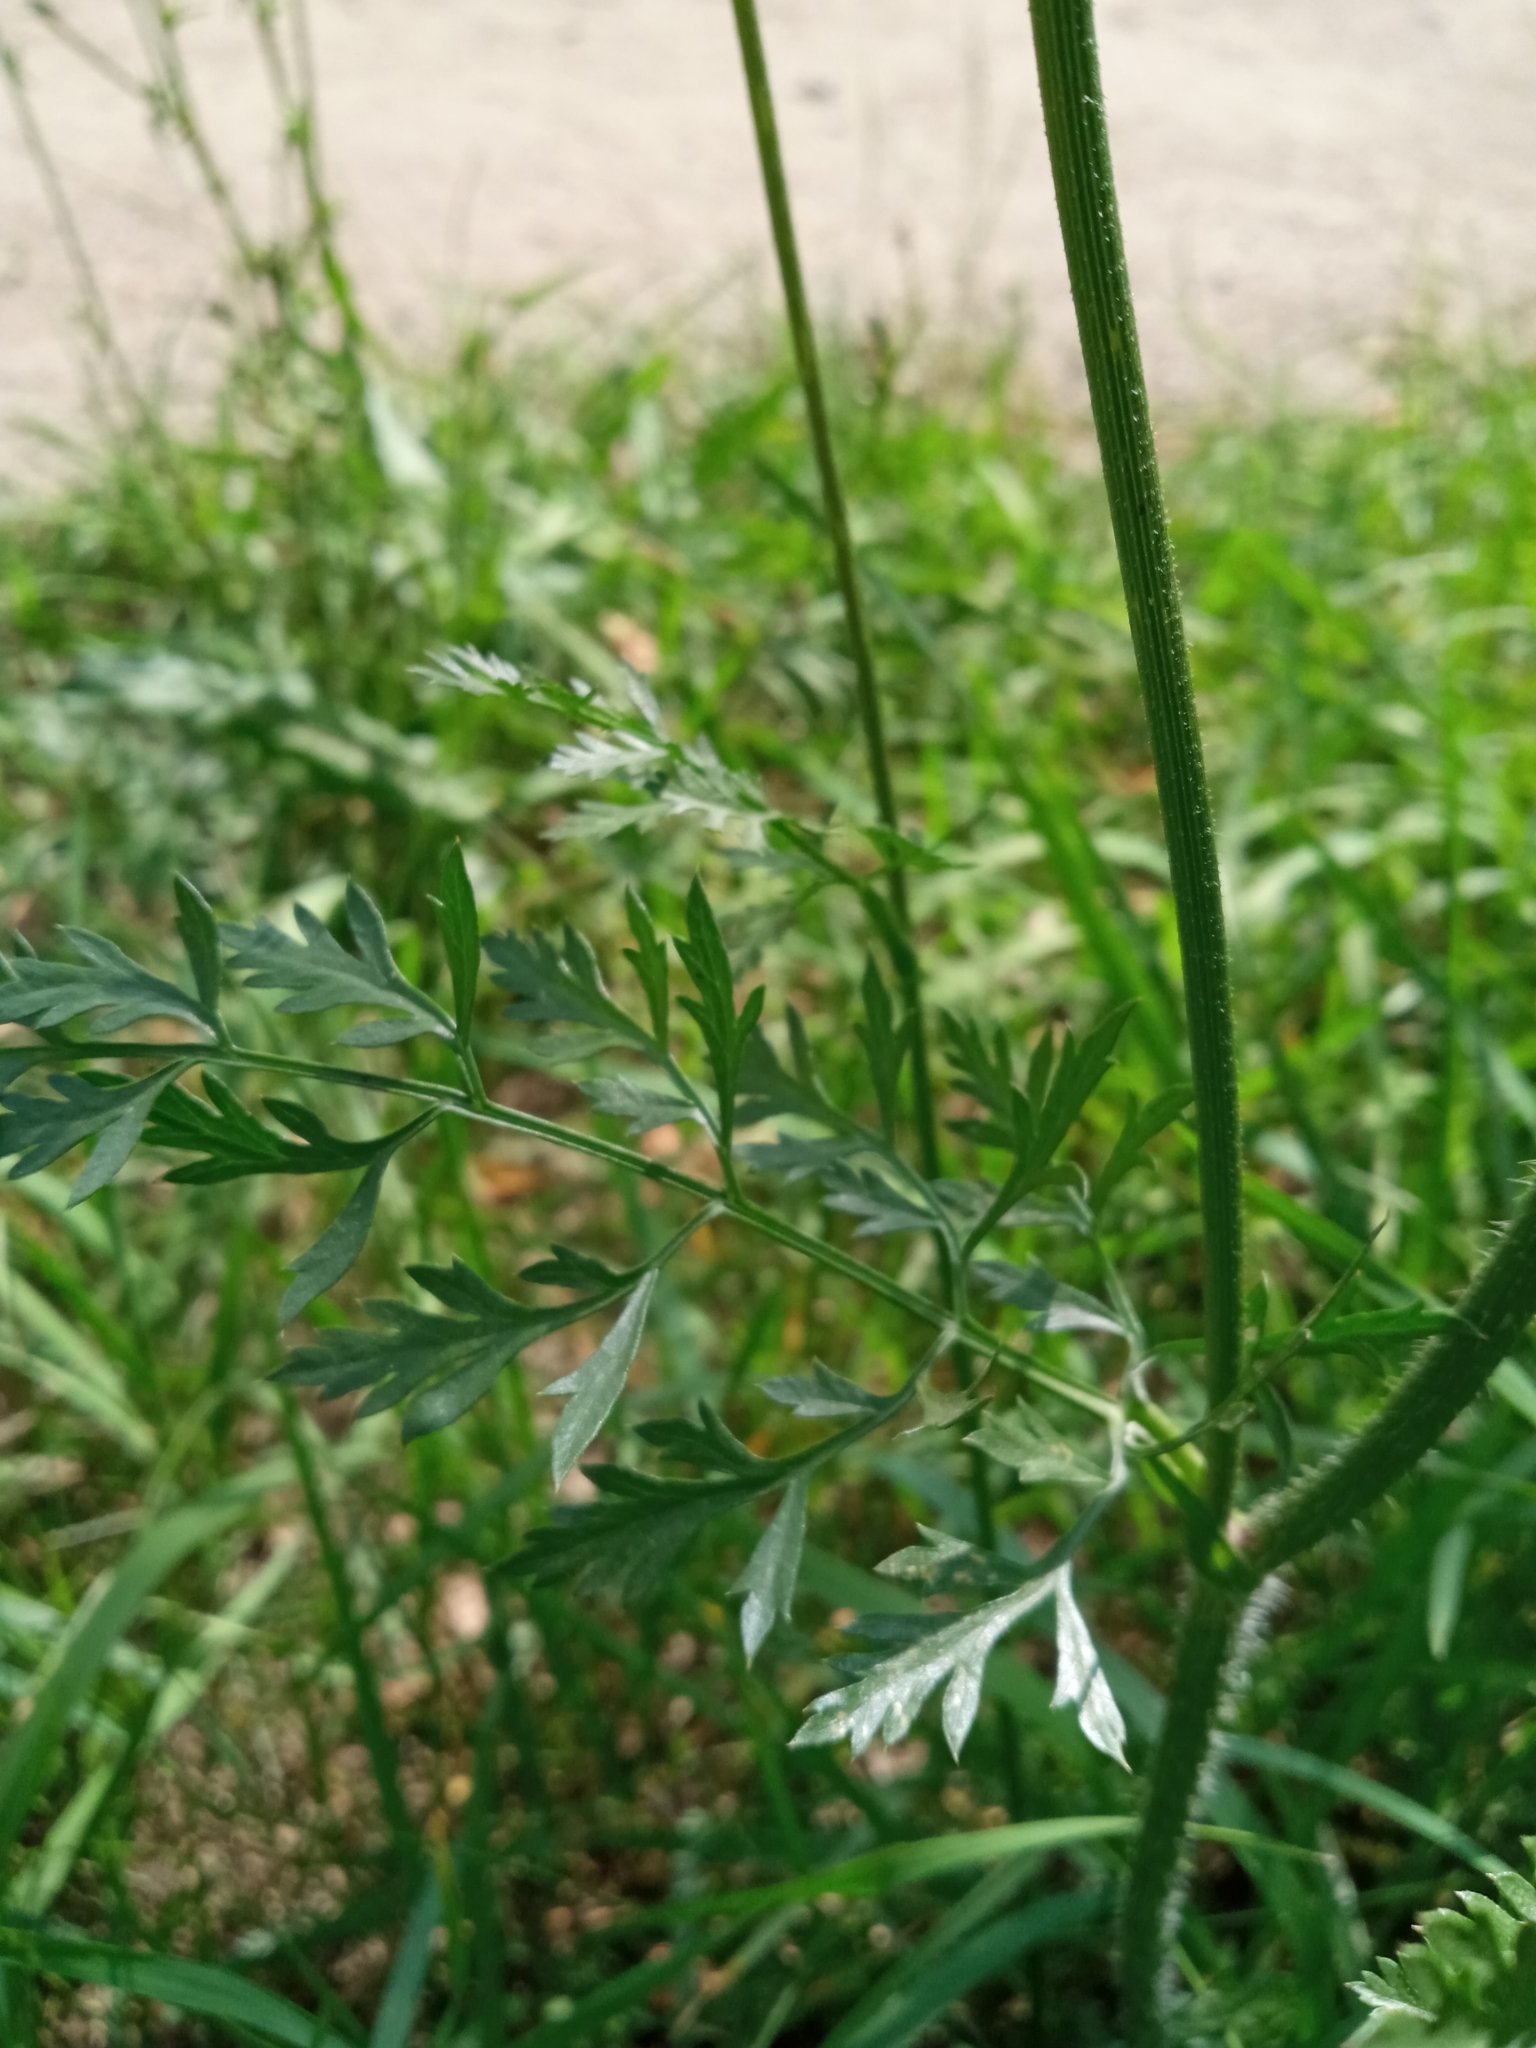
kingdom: Plantae
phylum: Tracheophyta
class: Magnoliopsida
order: Apiales
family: Apiaceae
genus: Daucus
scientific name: Daucus carota
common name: Wild carrot
